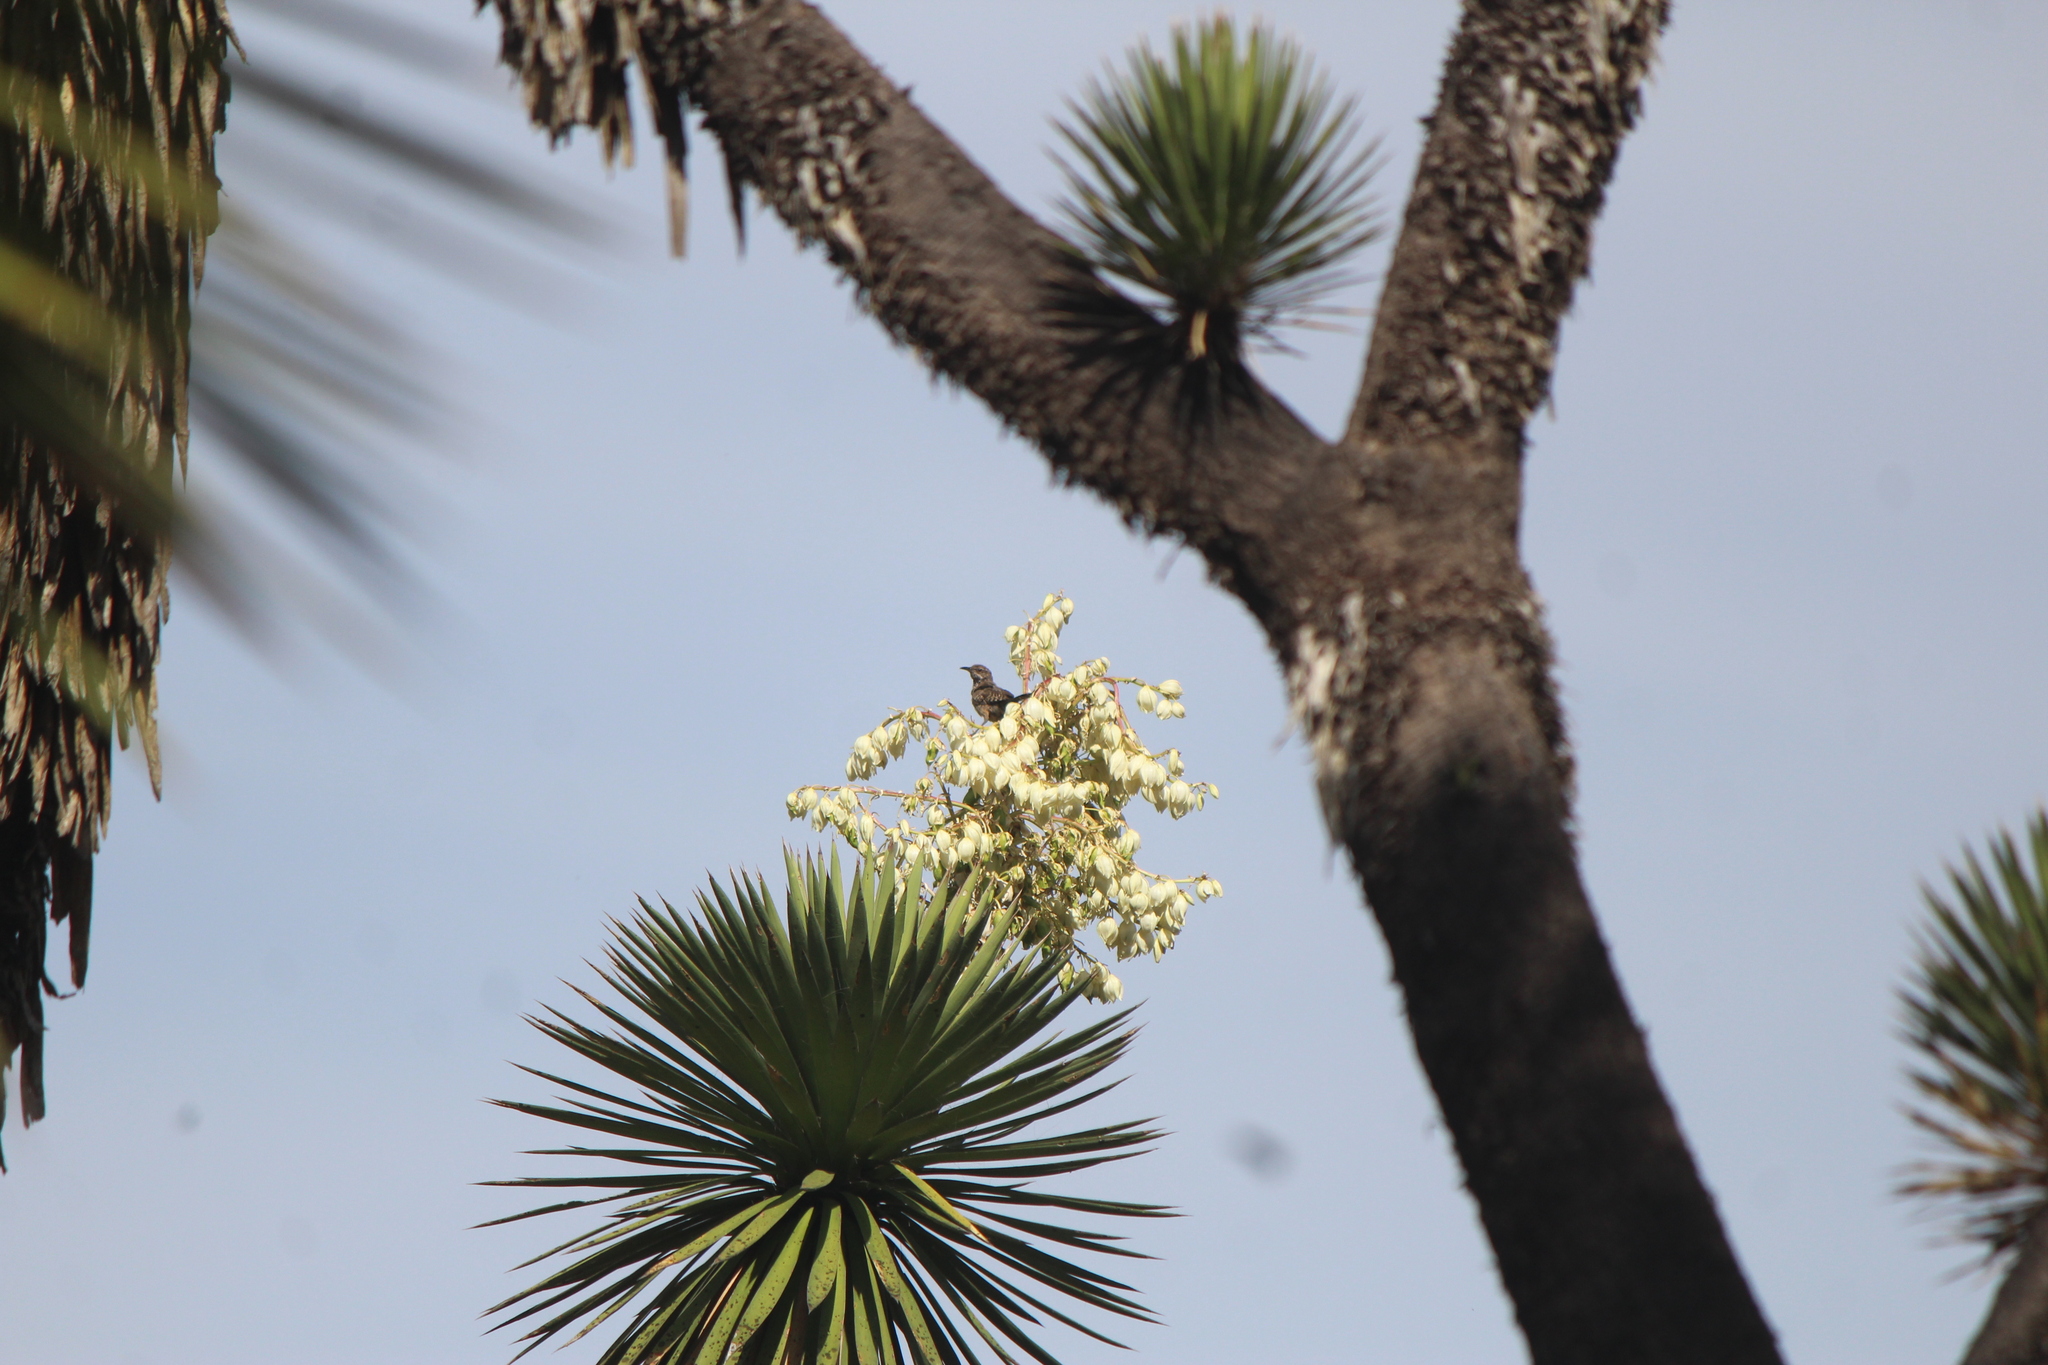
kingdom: Animalia
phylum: Chordata
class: Aves
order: Passeriformes
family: Mimidae
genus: Toxostoma
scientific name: Toxostoma curvirostre
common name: Curve-billed thrasher
